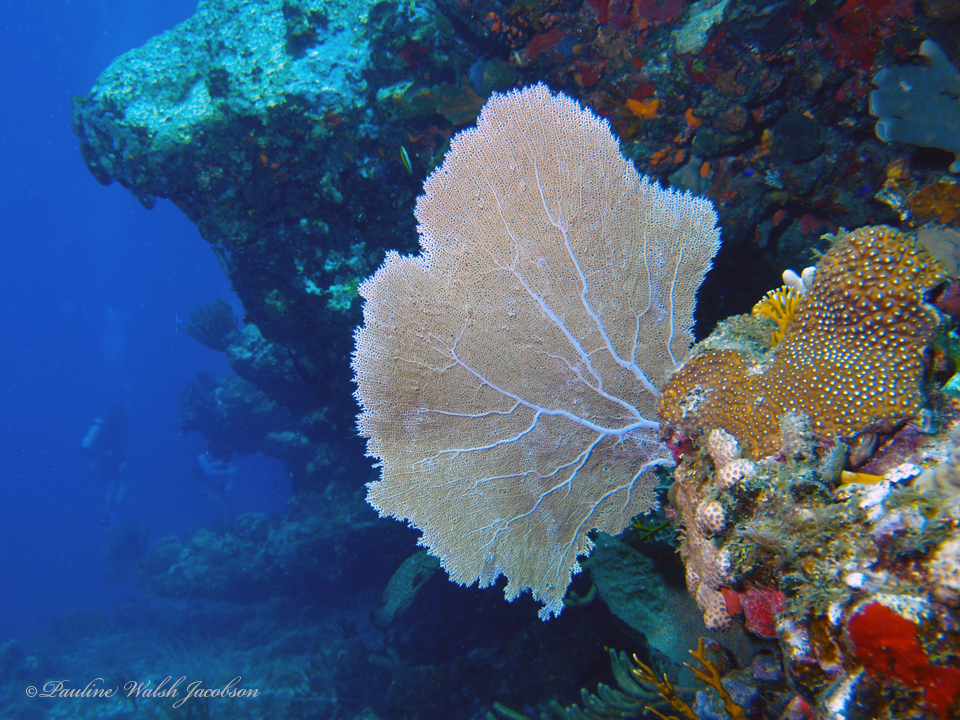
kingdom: Animalia
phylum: Cnidaria
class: Anthozoa
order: Malacalcyonacea
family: Gorgoniidae
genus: Gorgonia
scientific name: Gorgonia ventalina
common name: Common sea fan
